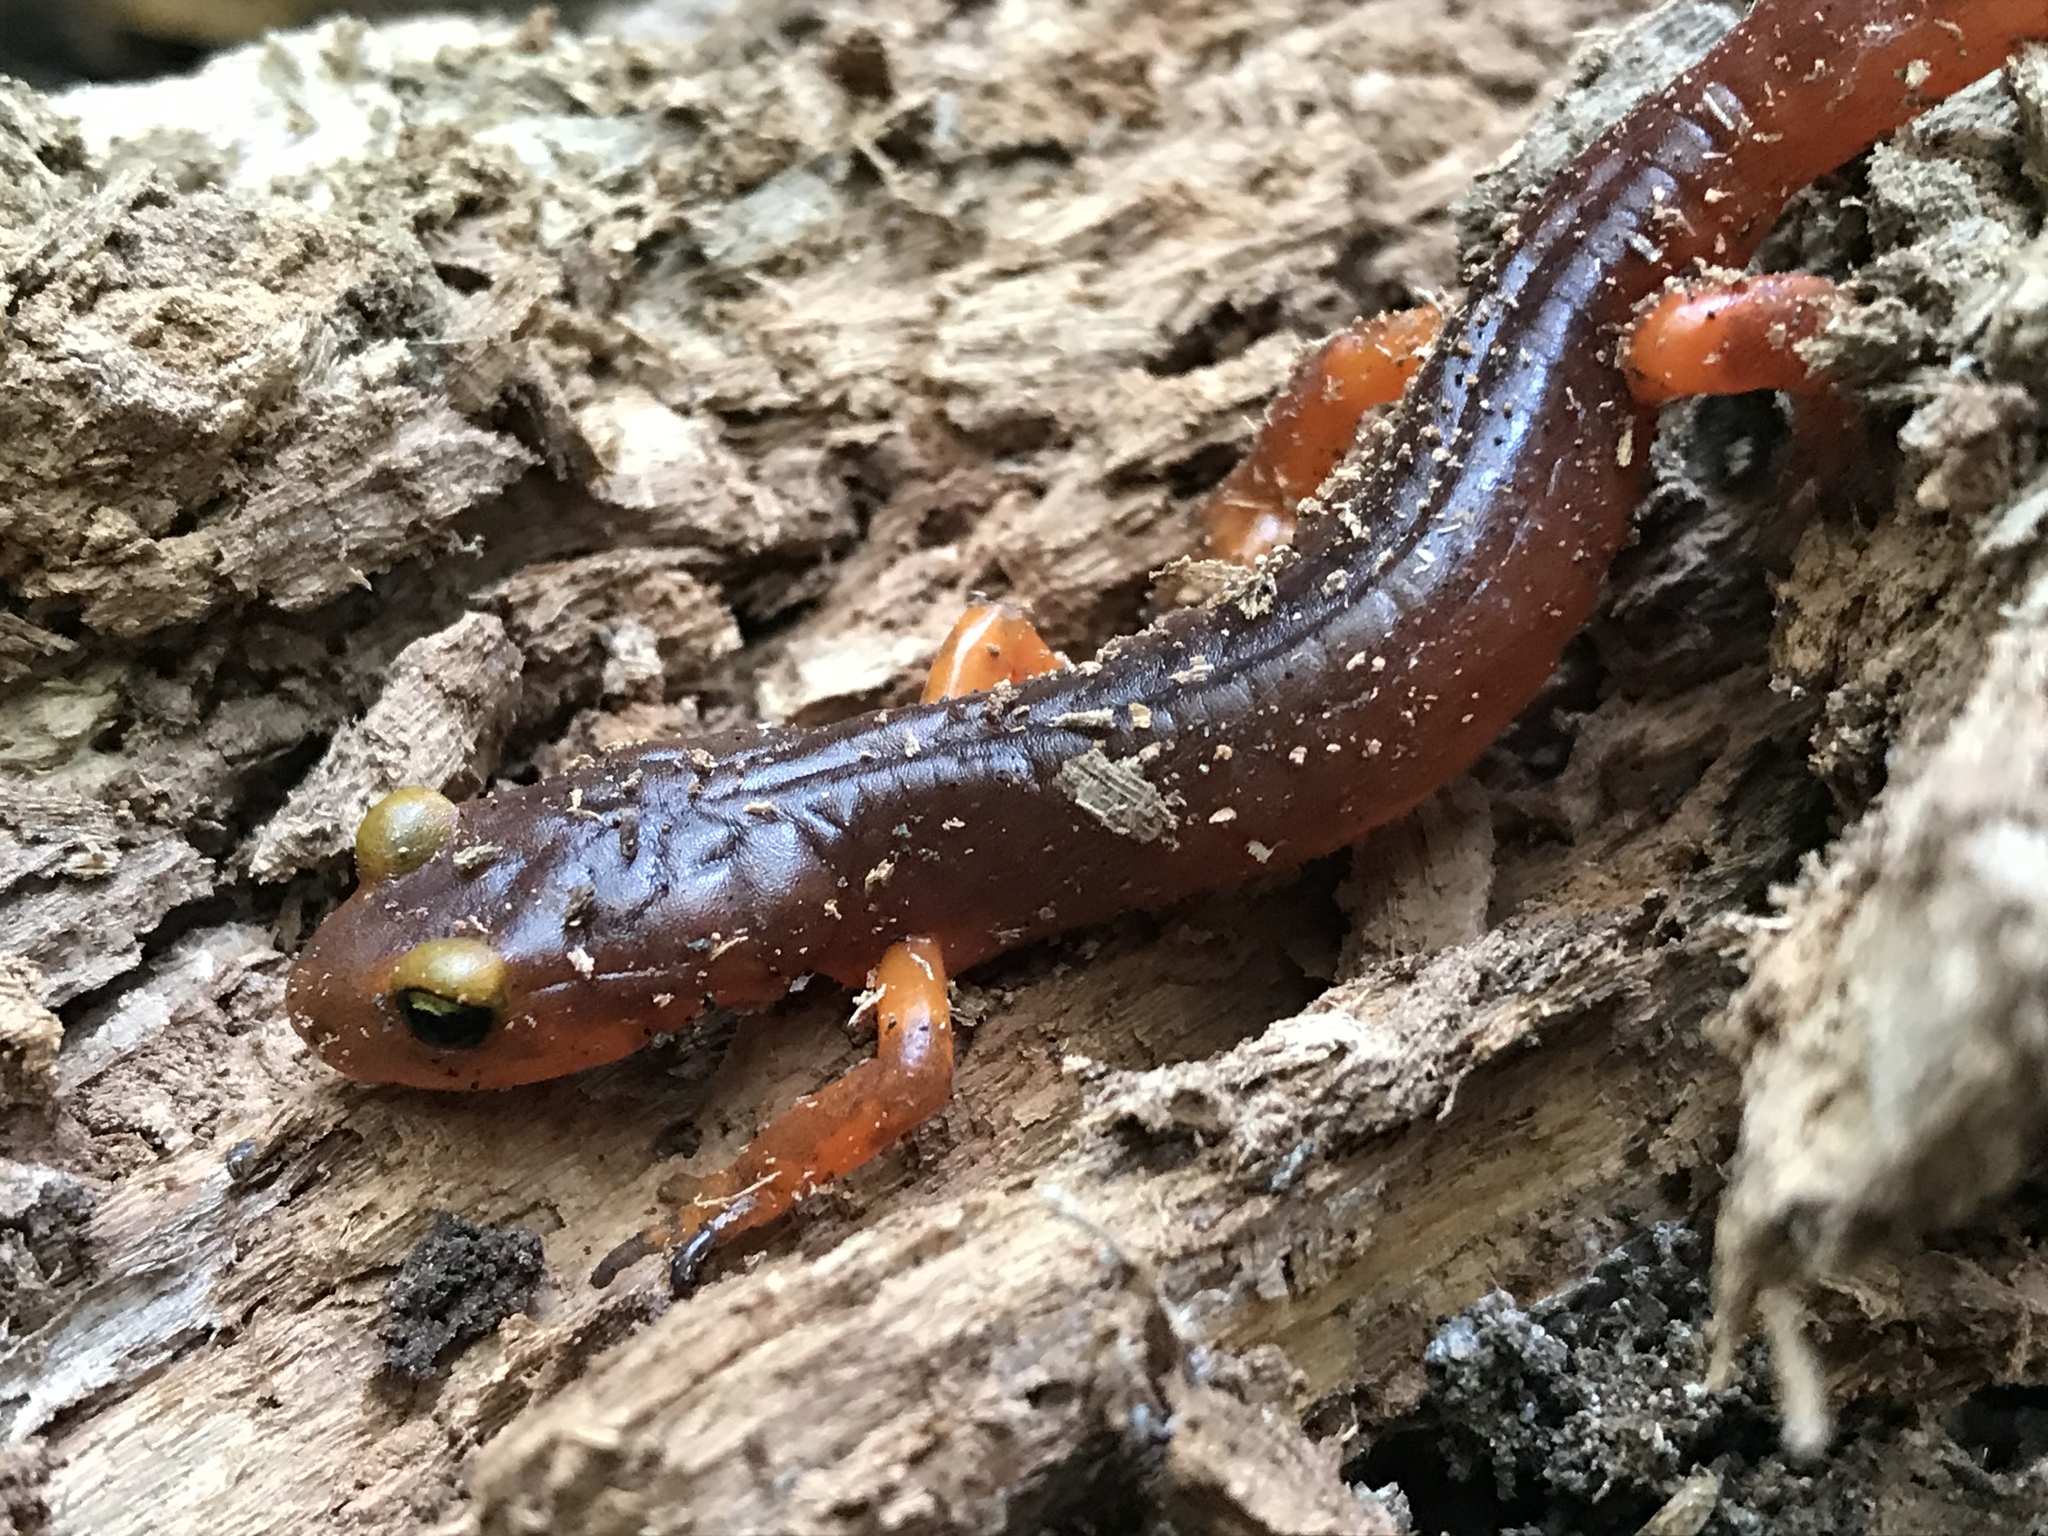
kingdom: Animalia
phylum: Chordata
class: Amphibia
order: Caudata
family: Plethodontidae
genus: Ensatina
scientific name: Ensatina eschscholtzii
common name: Ensatina
